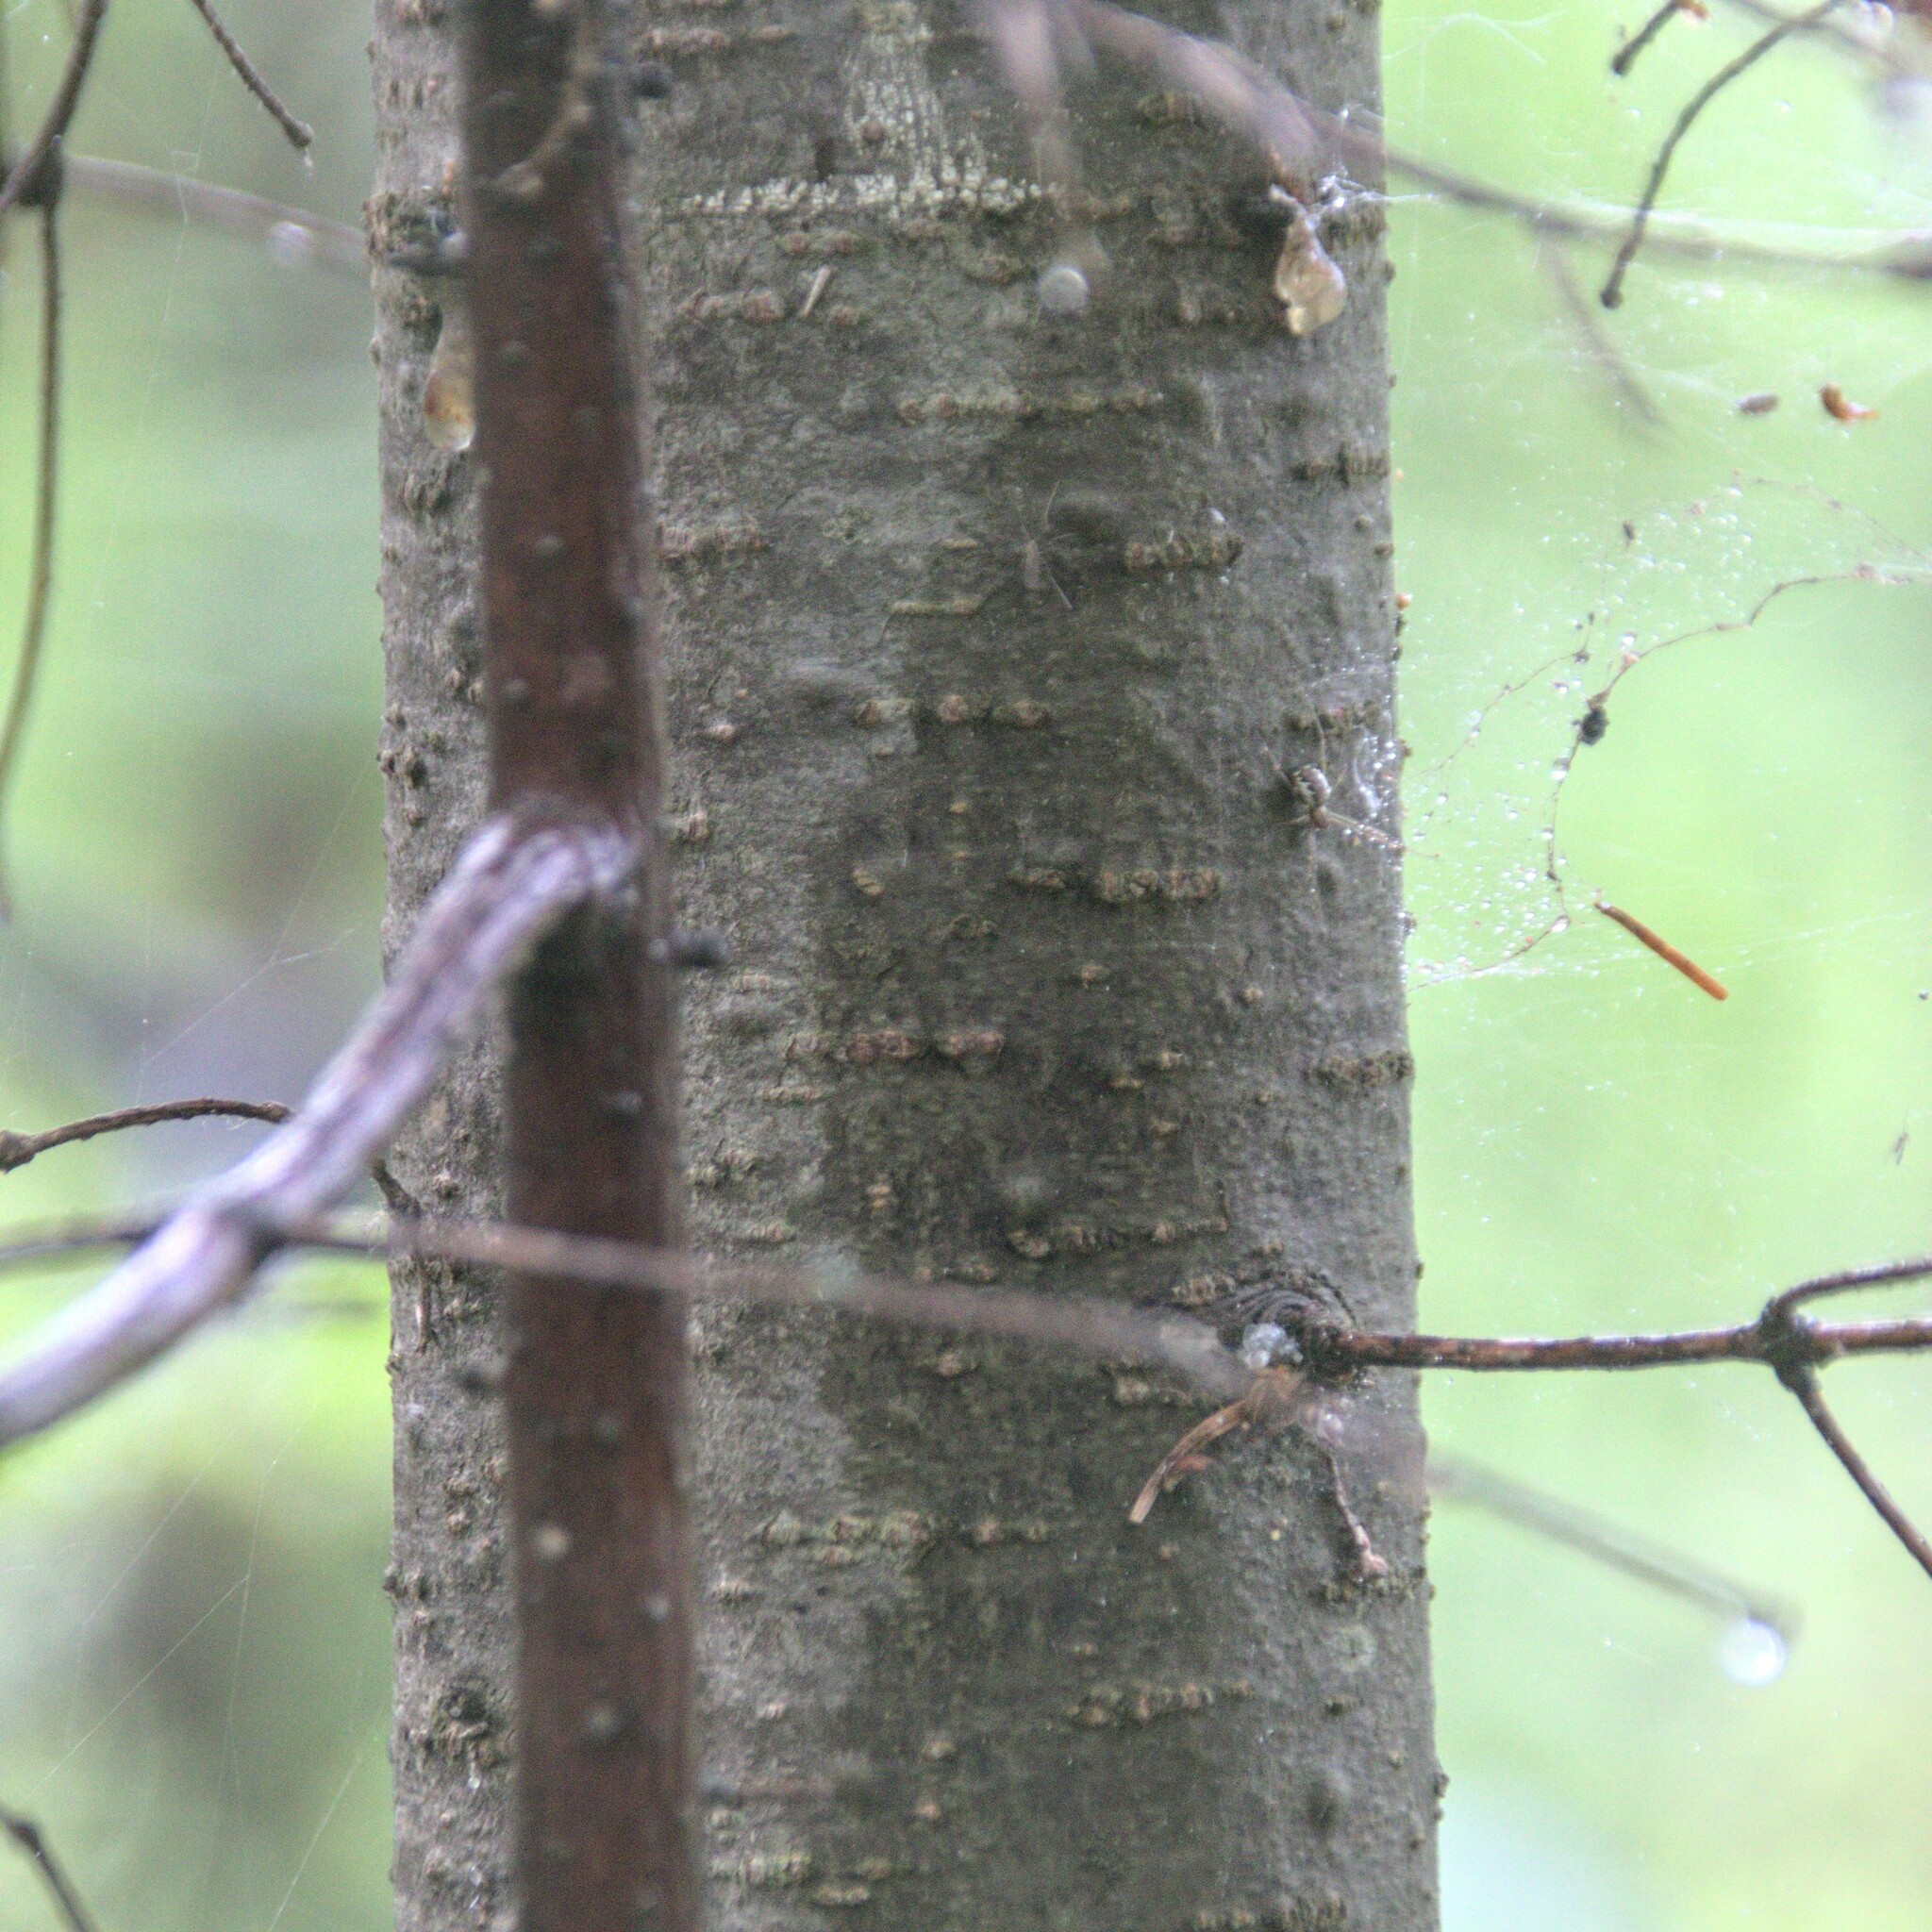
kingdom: Plantae
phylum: Tracheophyta
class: Pinopsida
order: Pinales
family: Pinaceae
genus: Abies
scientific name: Abies sibirica
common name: Siberian fir
